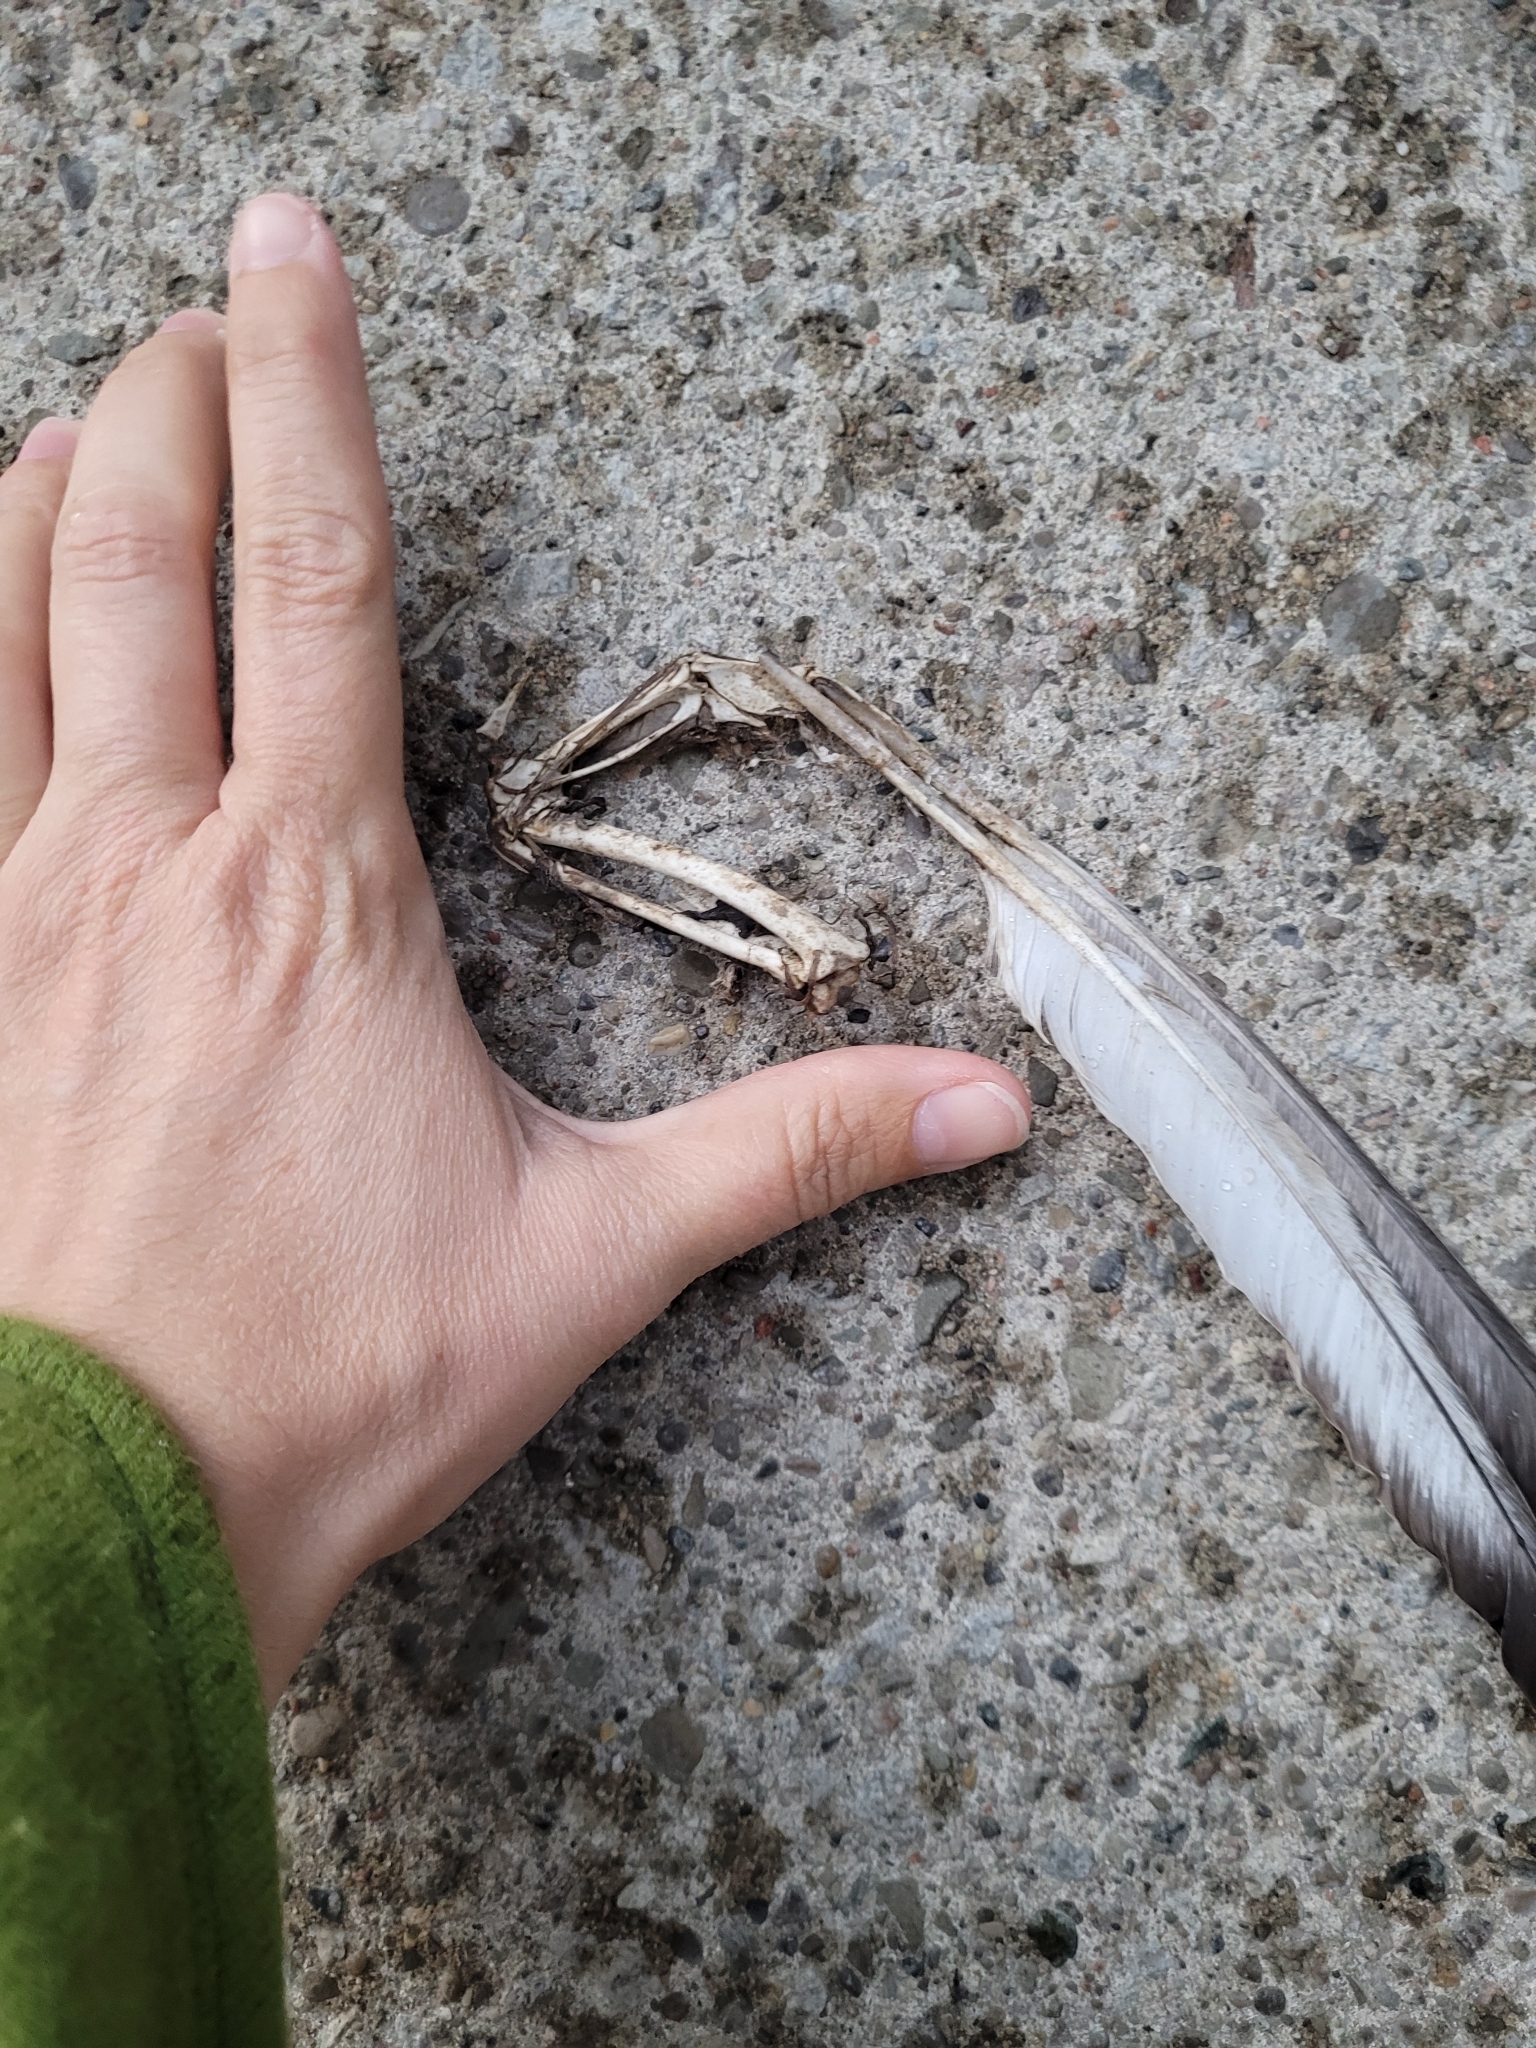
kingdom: Animalia
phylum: Chordata
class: Aves
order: Columbiformes
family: Columbidae
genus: Columba
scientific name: Columba livia
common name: Rock pigeon
